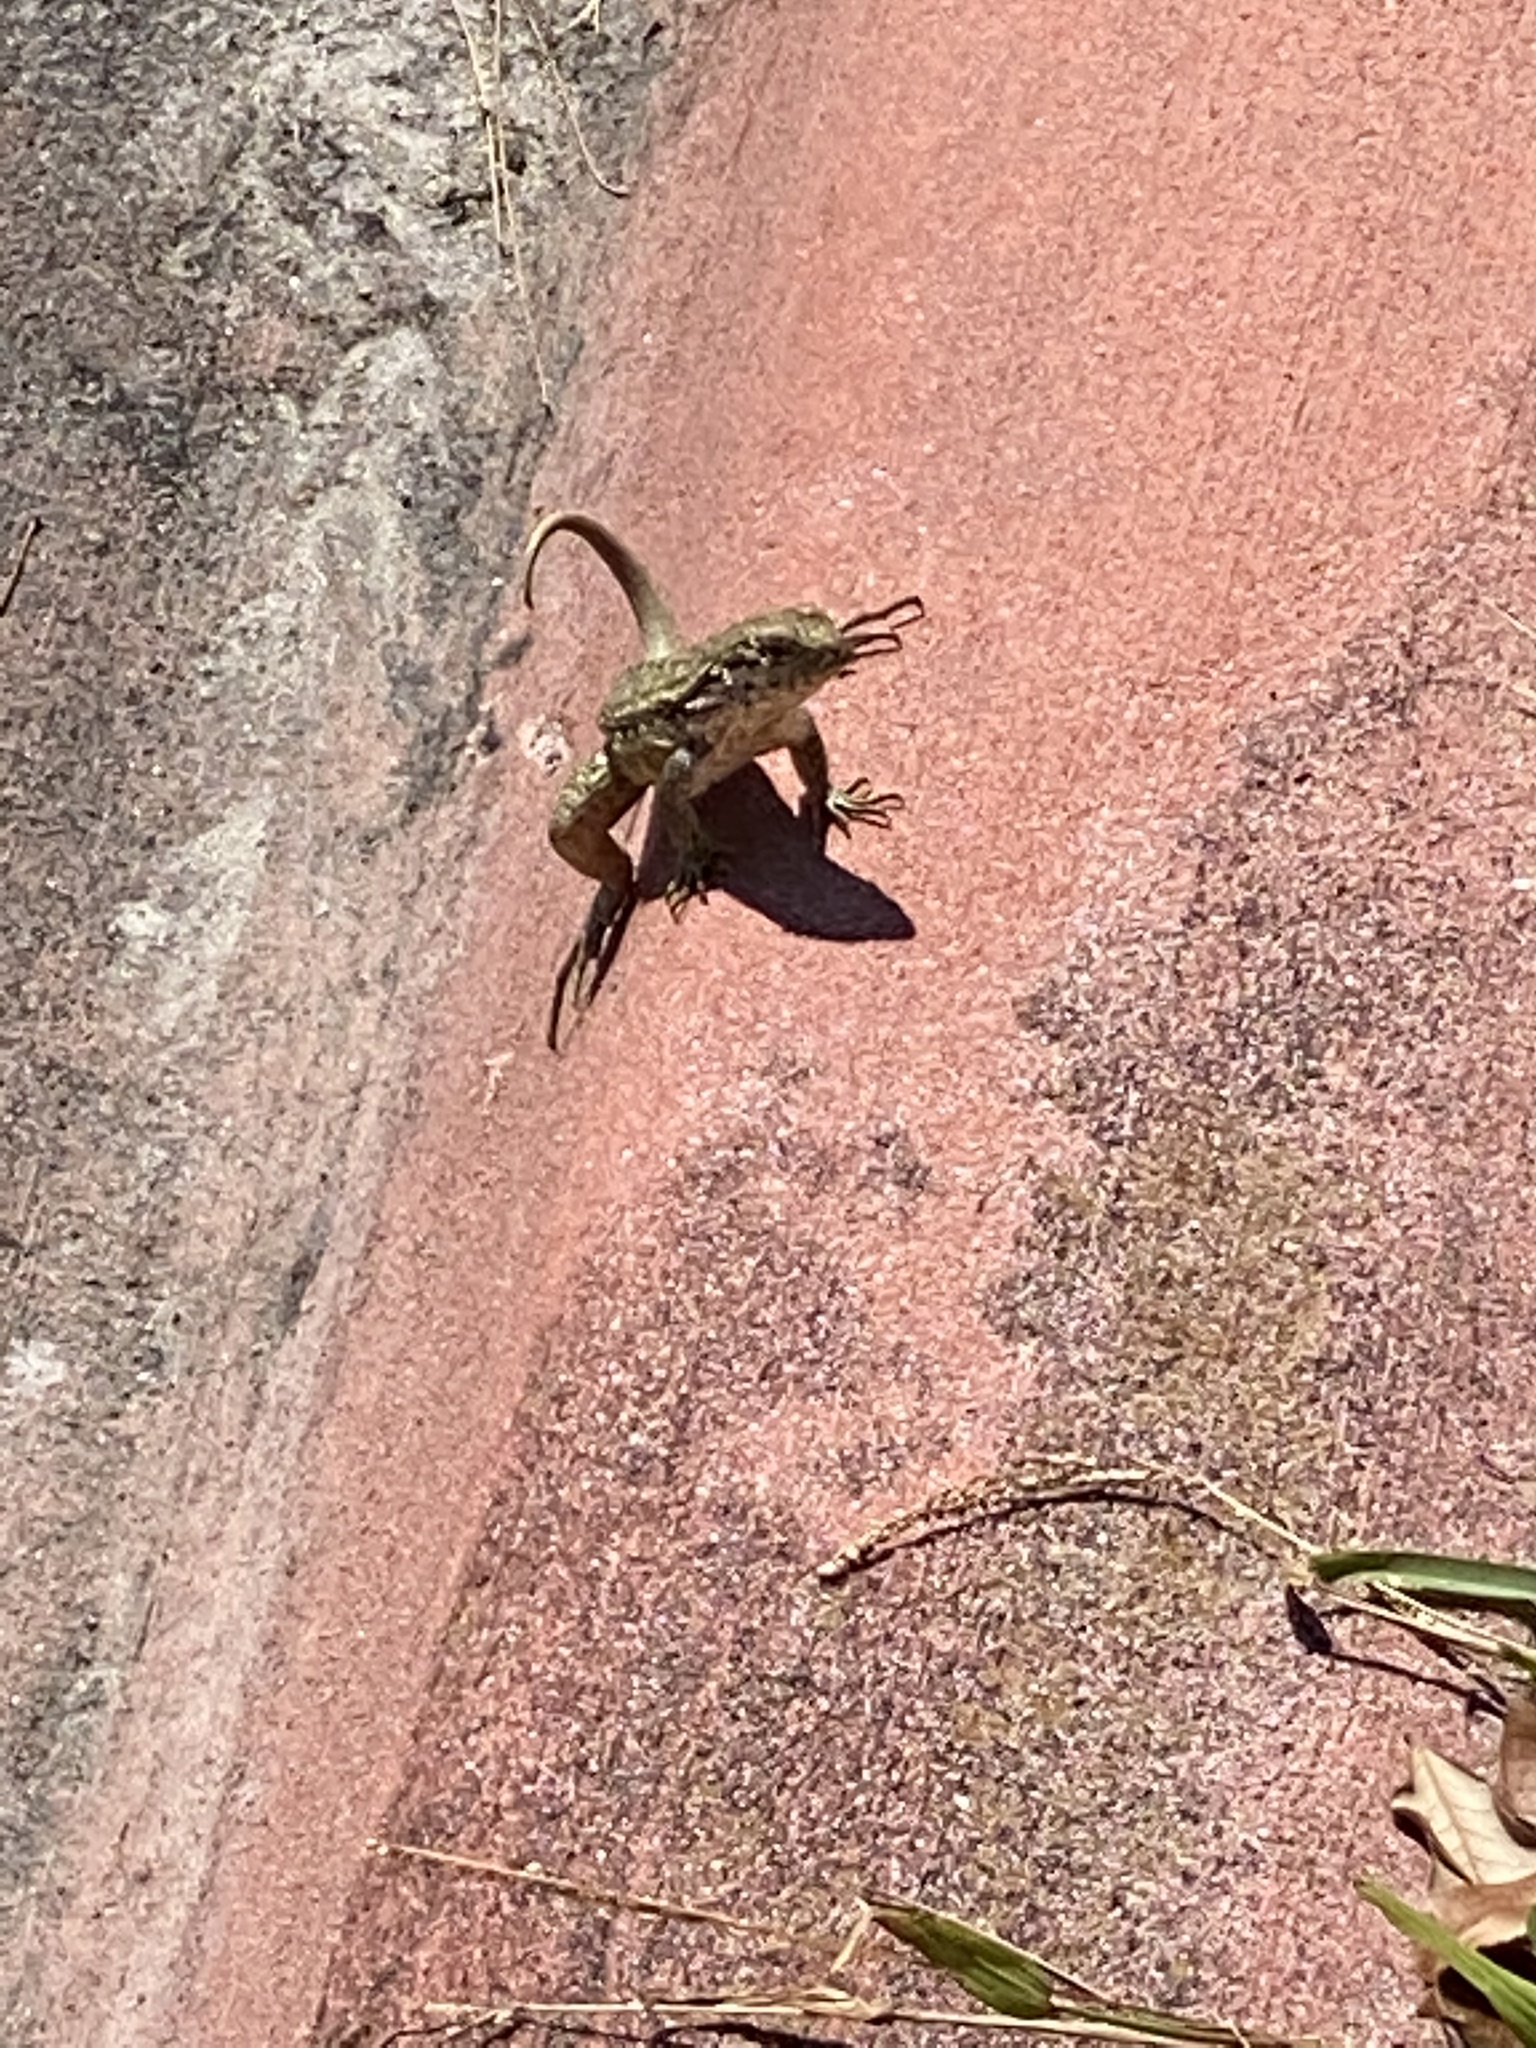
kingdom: Animalia
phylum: Chordata
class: Squamata
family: Leiocephalidae
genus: Leiocephalus
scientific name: Leiocephalus carinatus
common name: Northern curly-tailed lizard
